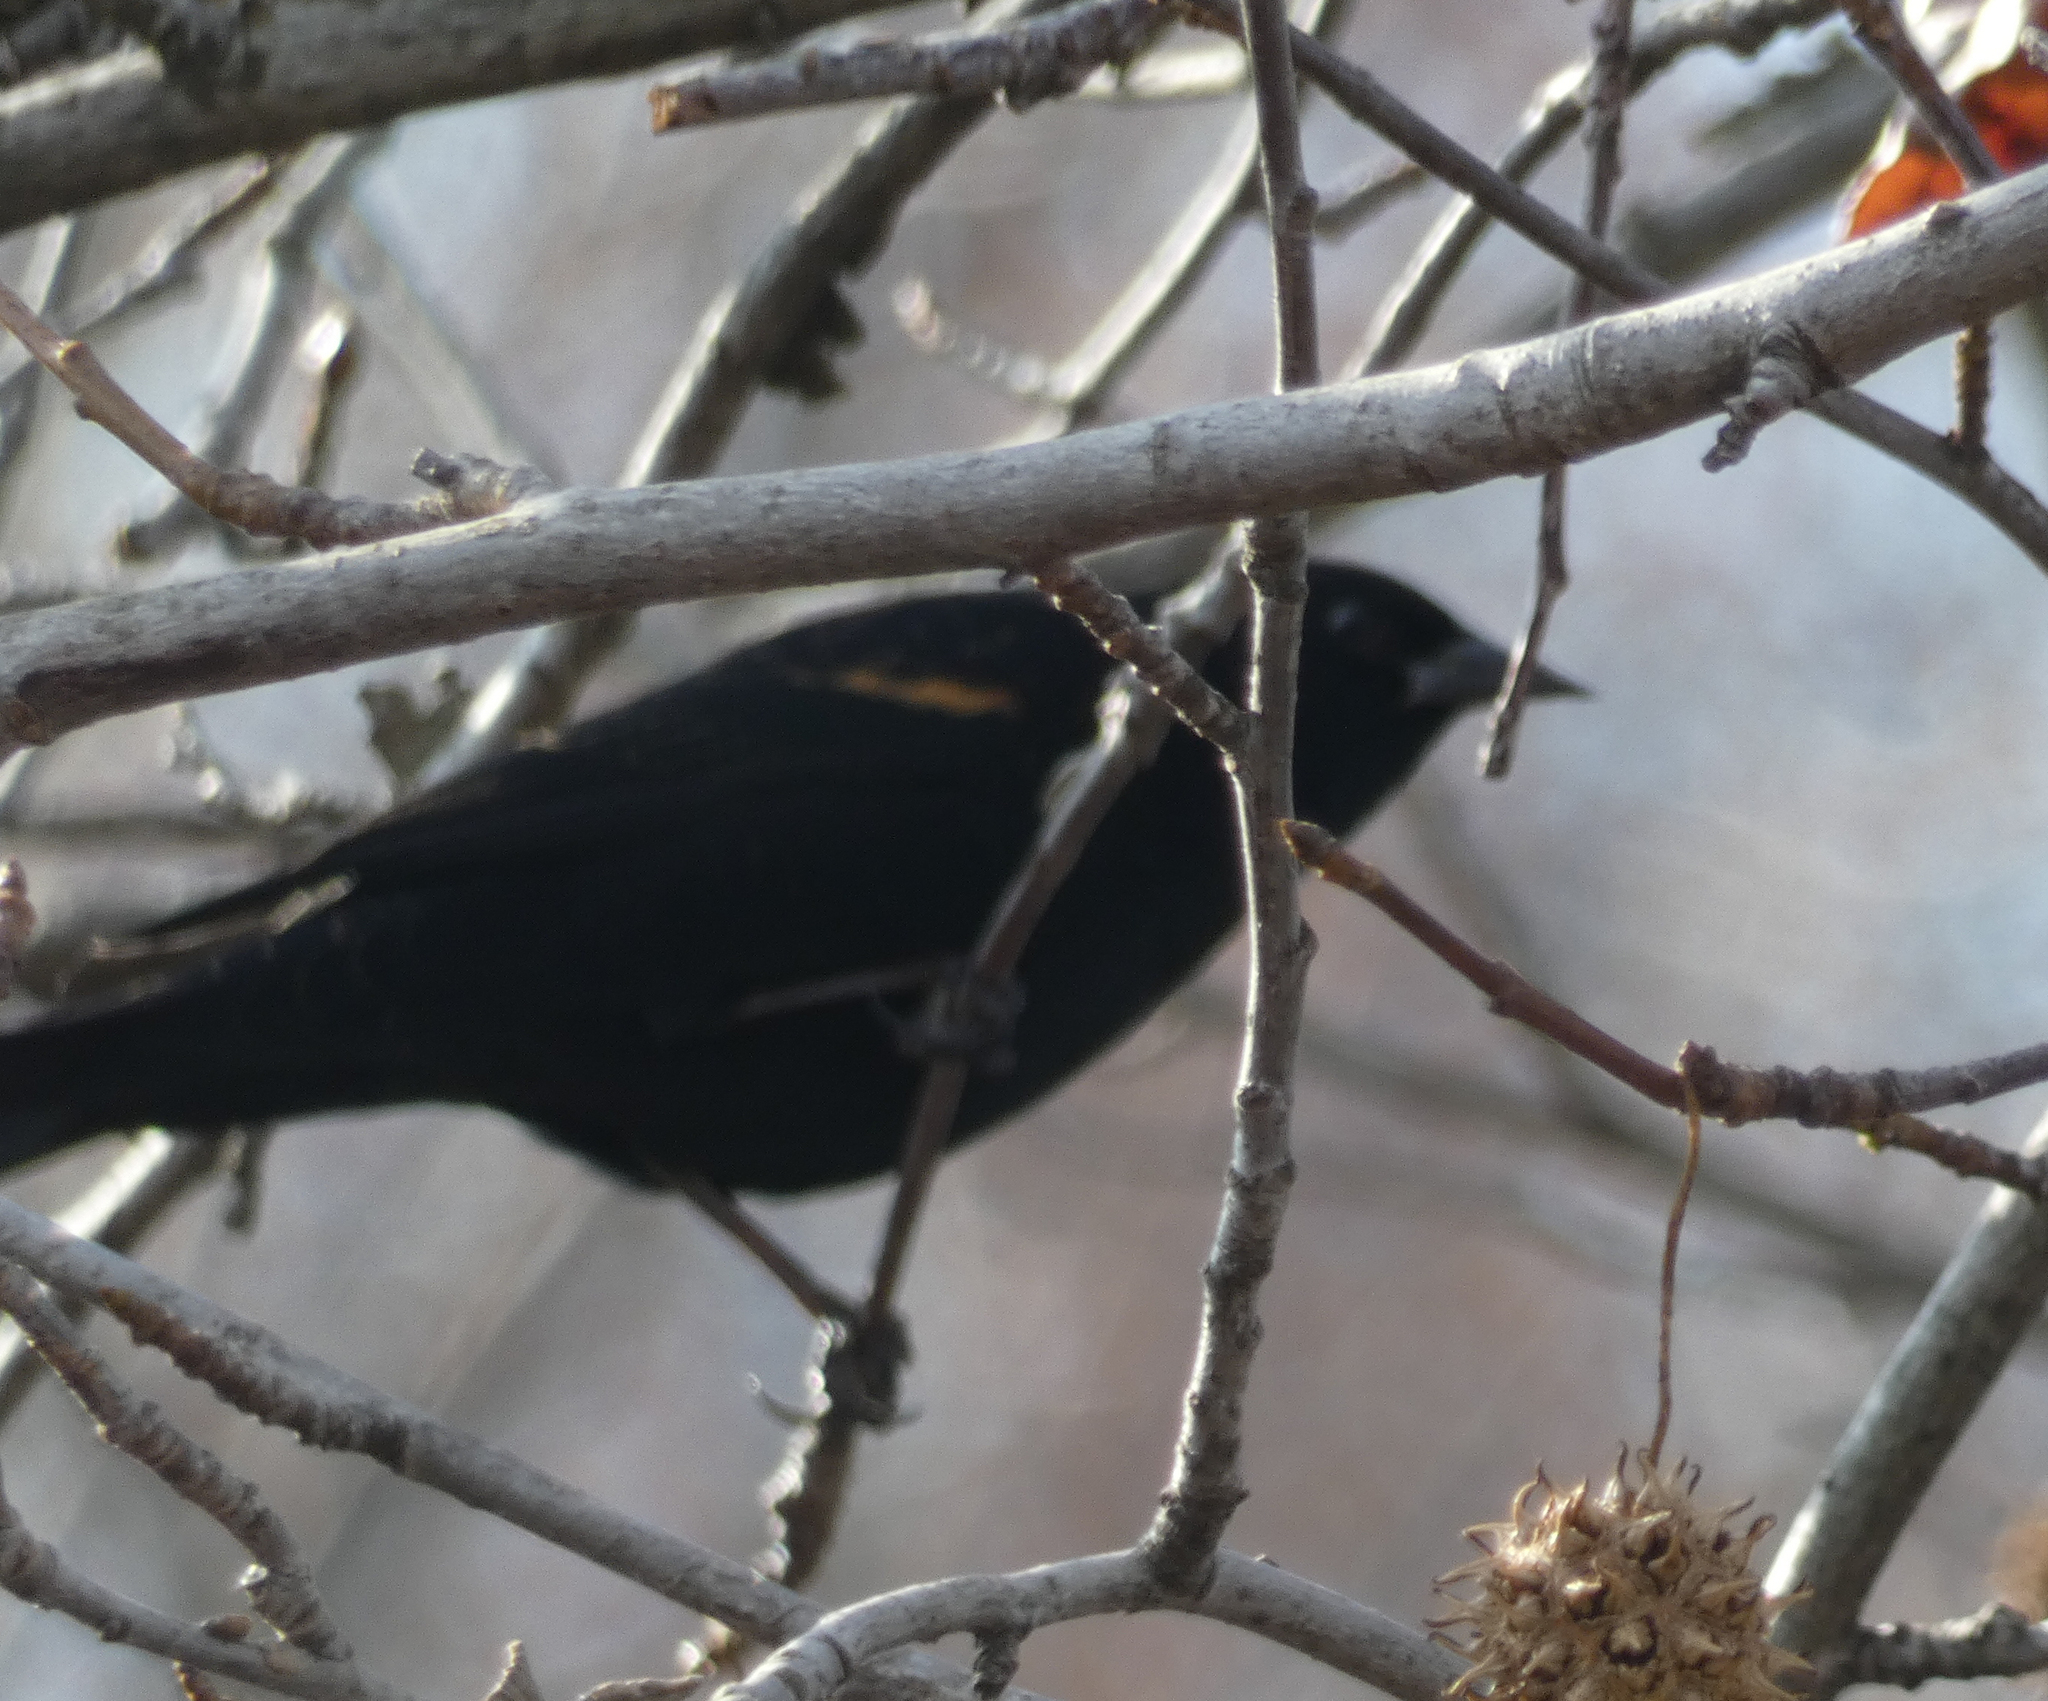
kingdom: Animalia
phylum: Chordata
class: Aves
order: Passeriformes
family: Icteridae
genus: Agelaius
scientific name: Agelaius phoeniceus
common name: Red-winged blackbird
